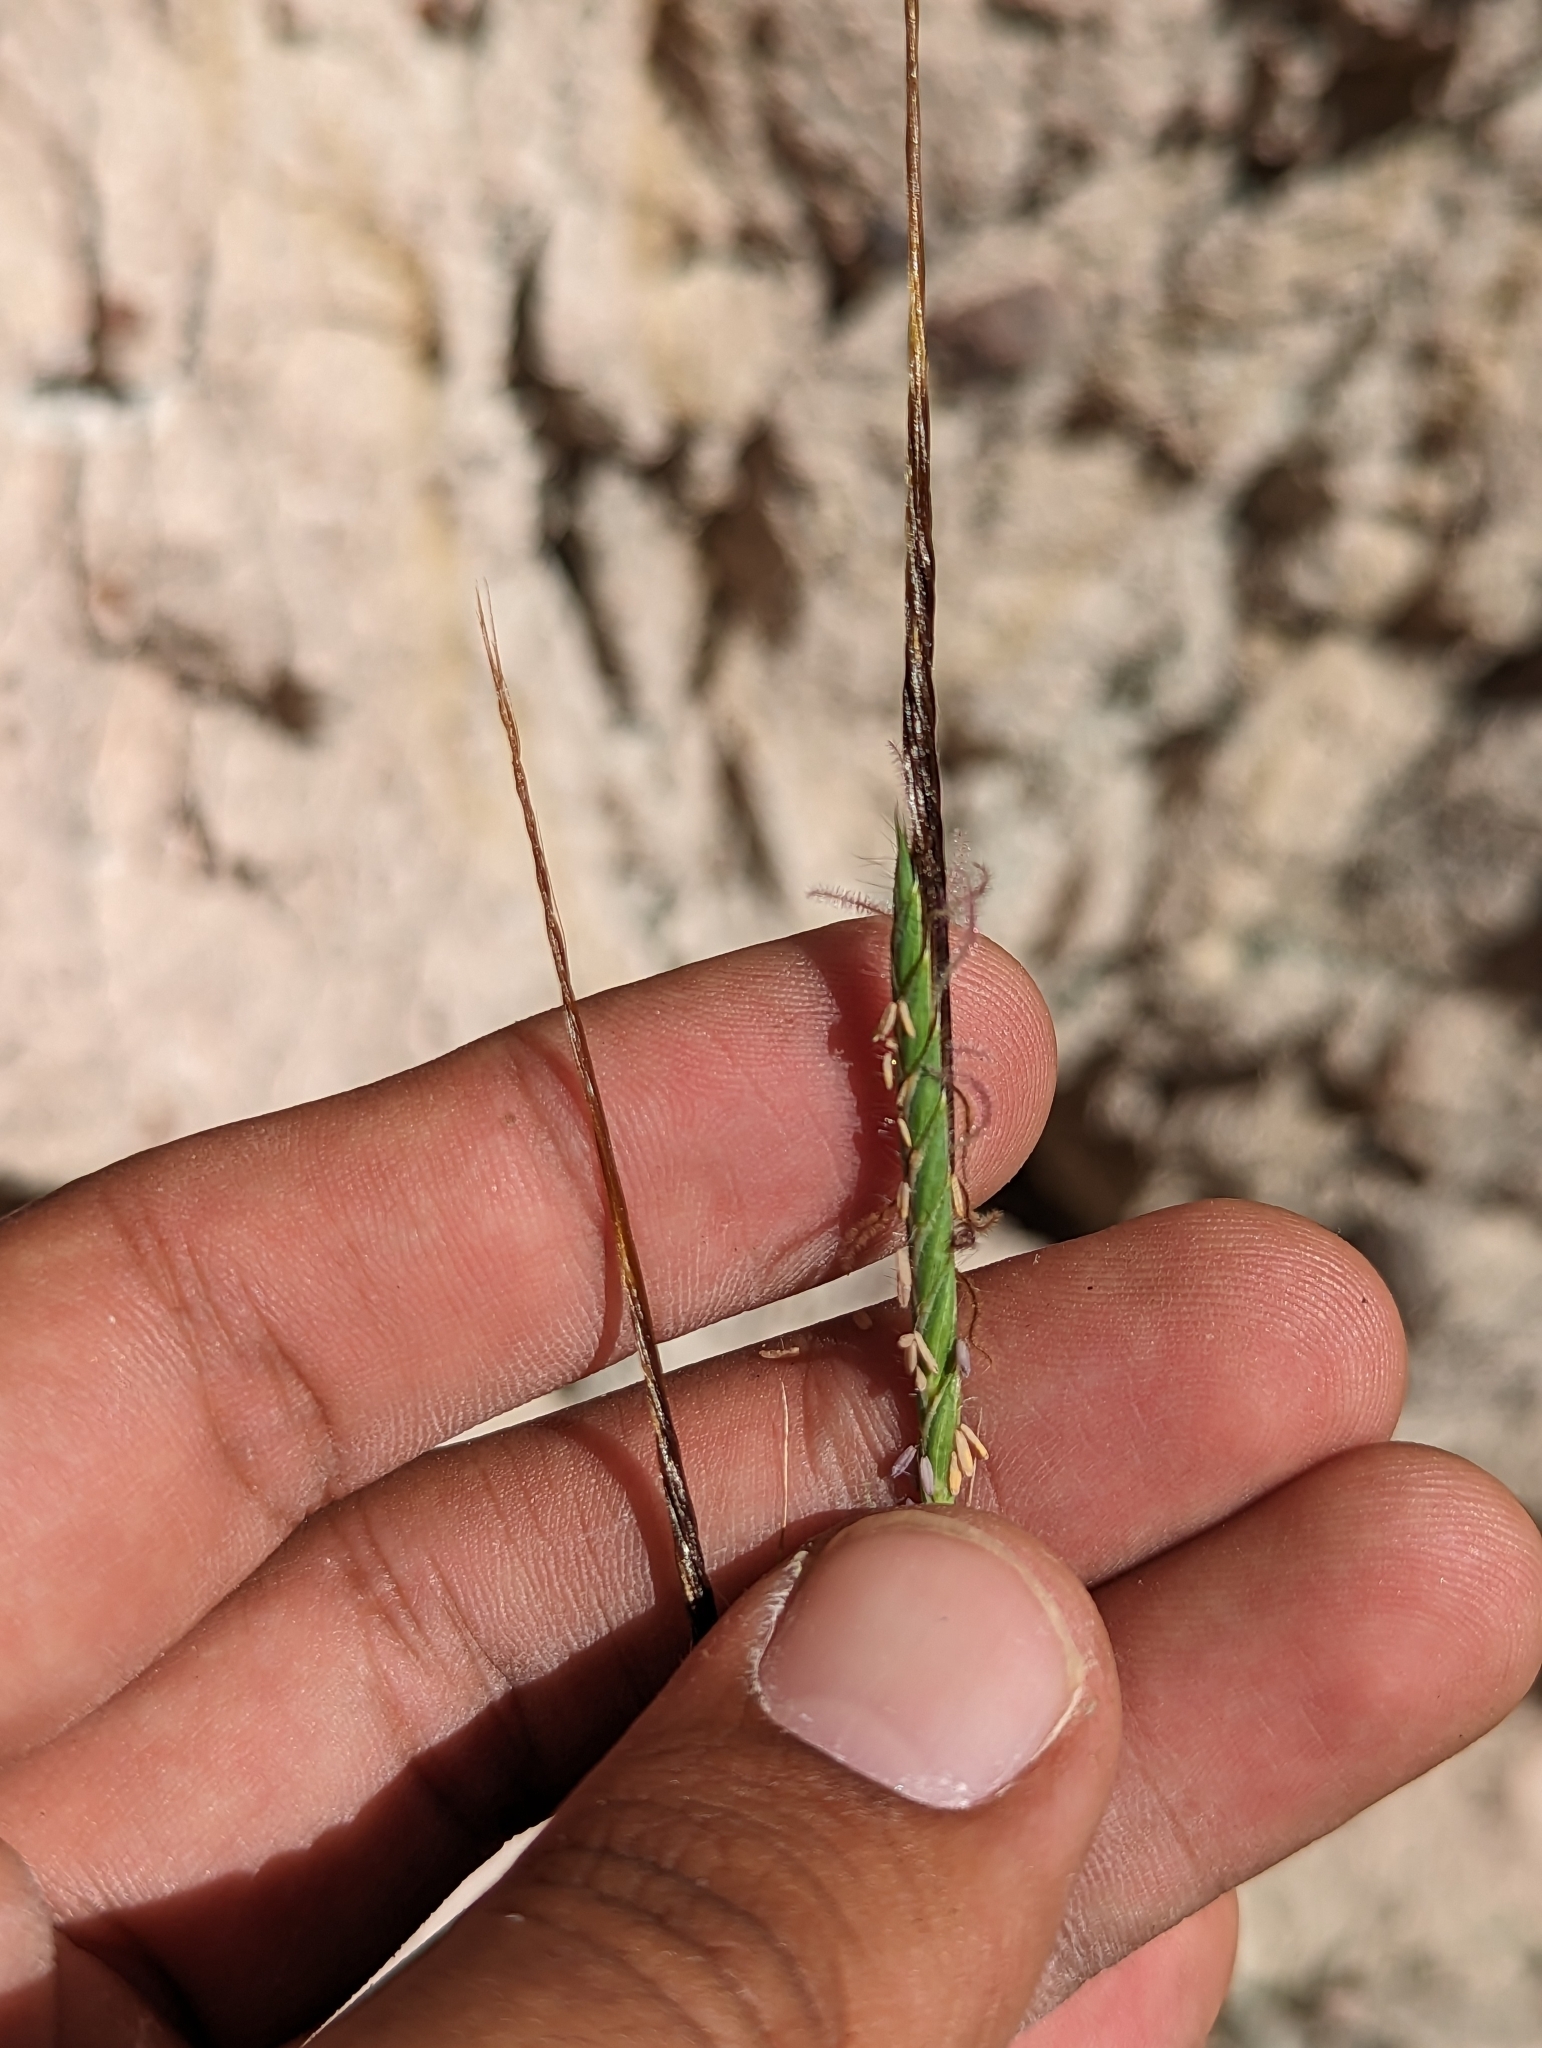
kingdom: Plantae
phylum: Tracheophyta
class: Liliopsida
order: Poales
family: Poaceae
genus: Heteropogon
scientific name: Heteropogon contortus
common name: Tanglehead
